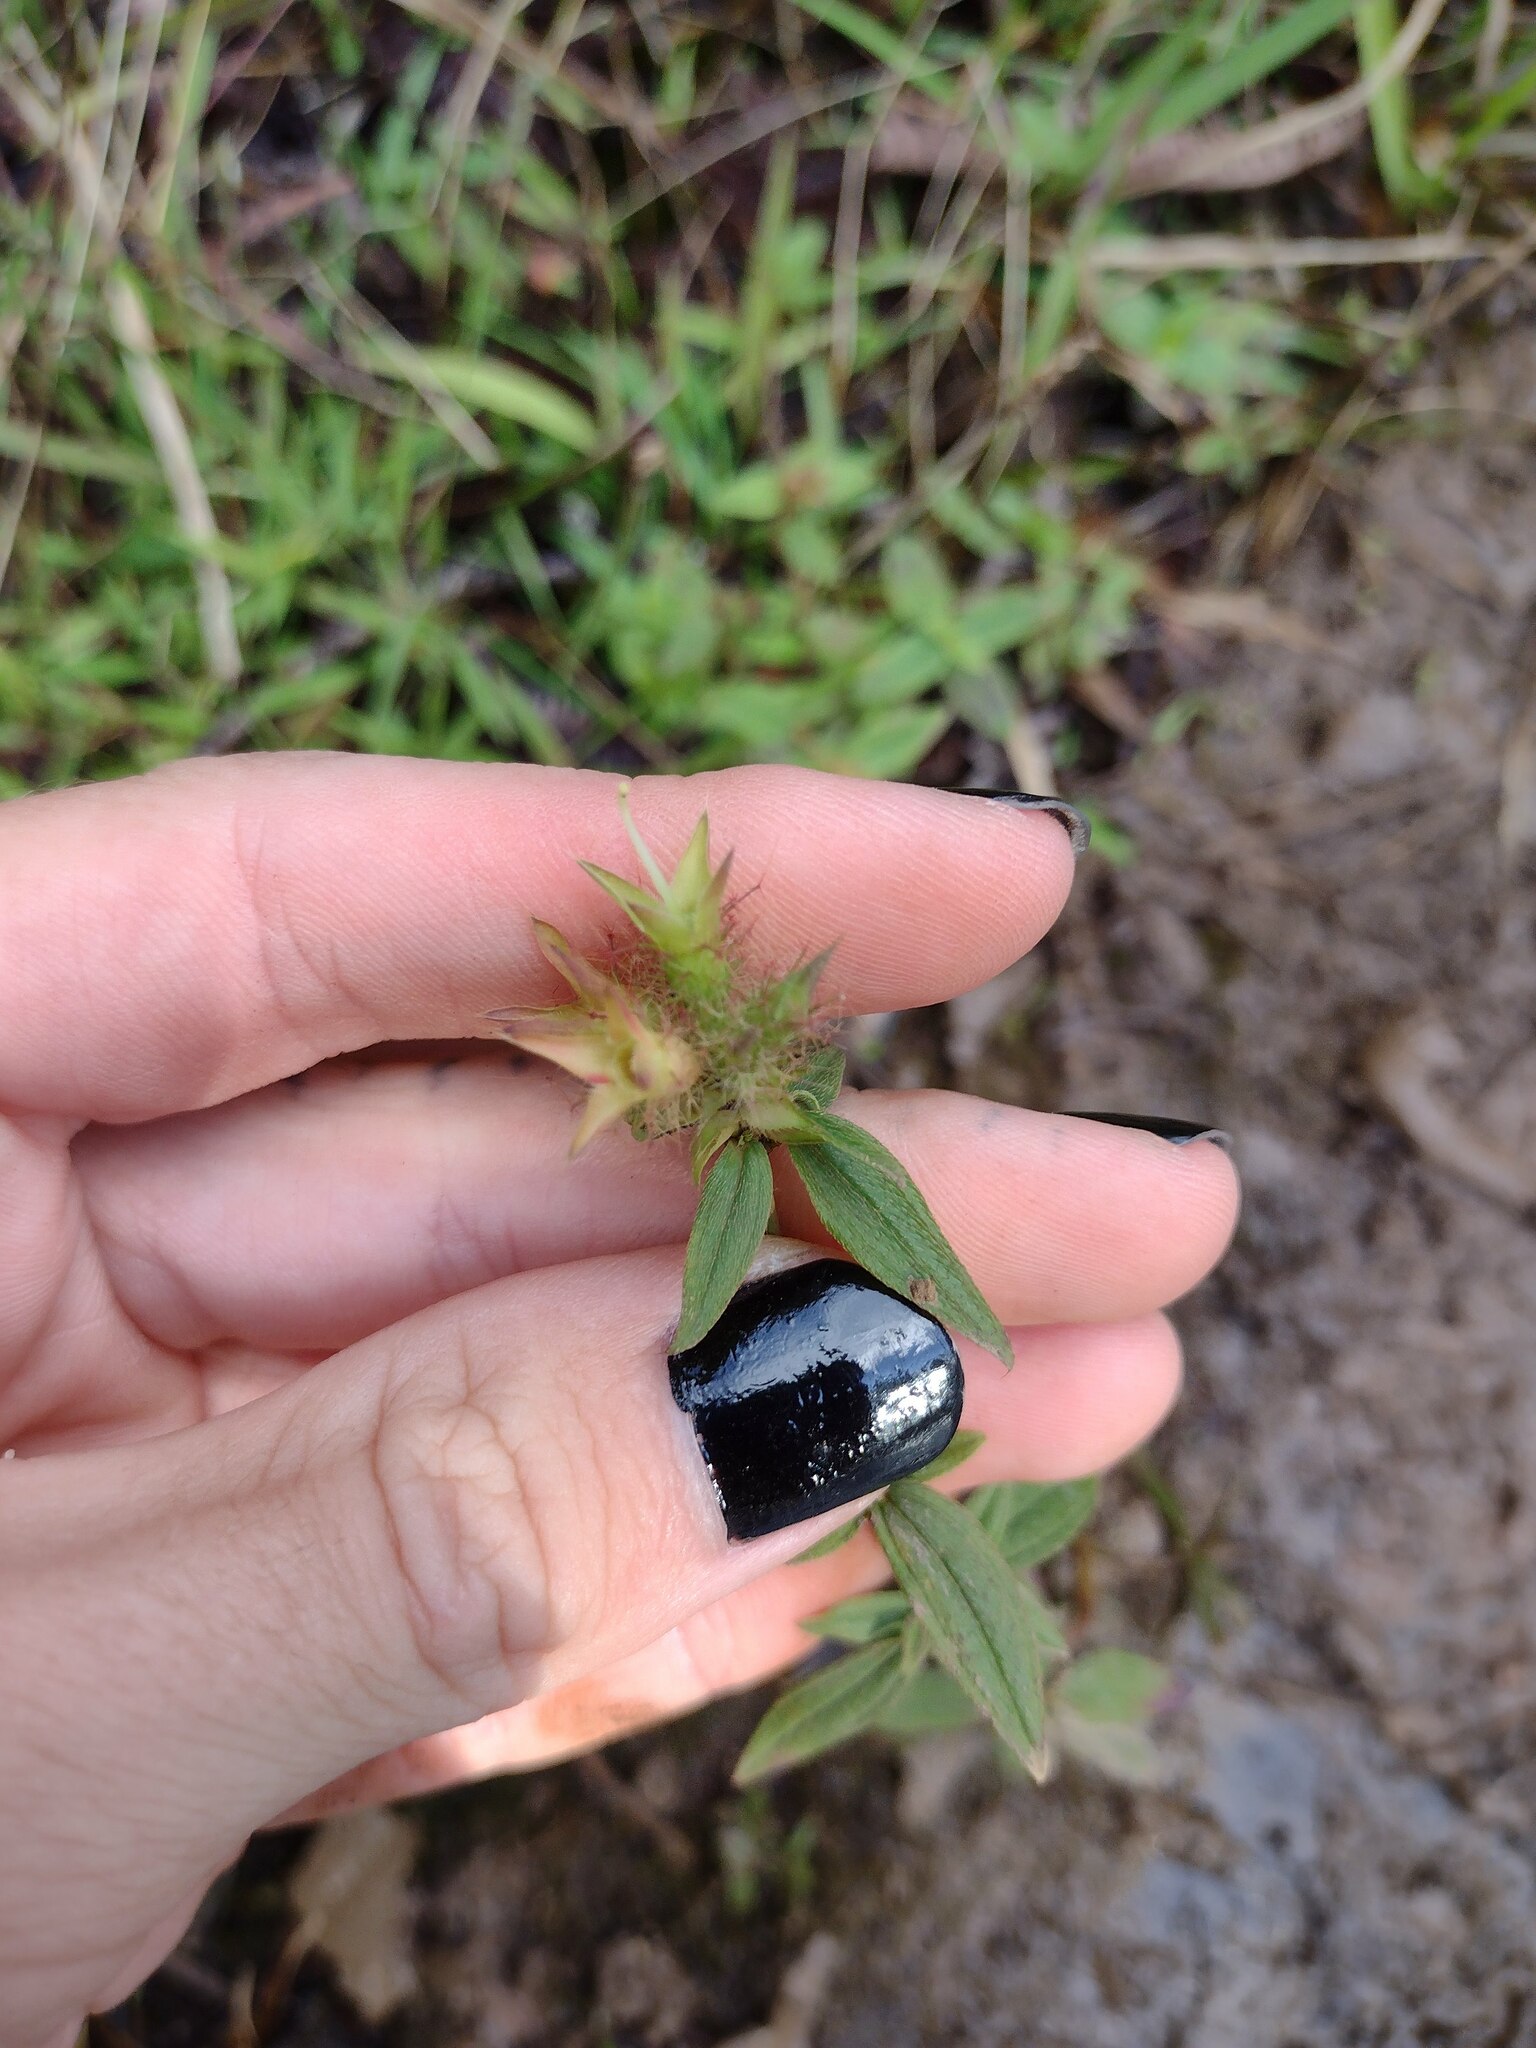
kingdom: Plantae
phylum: Tracheophyta
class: Magnoliopsida
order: Myrtales
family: Melastomataceae
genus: Pterolepis
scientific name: Pterolepis glomerata
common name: False meadowbeauty
